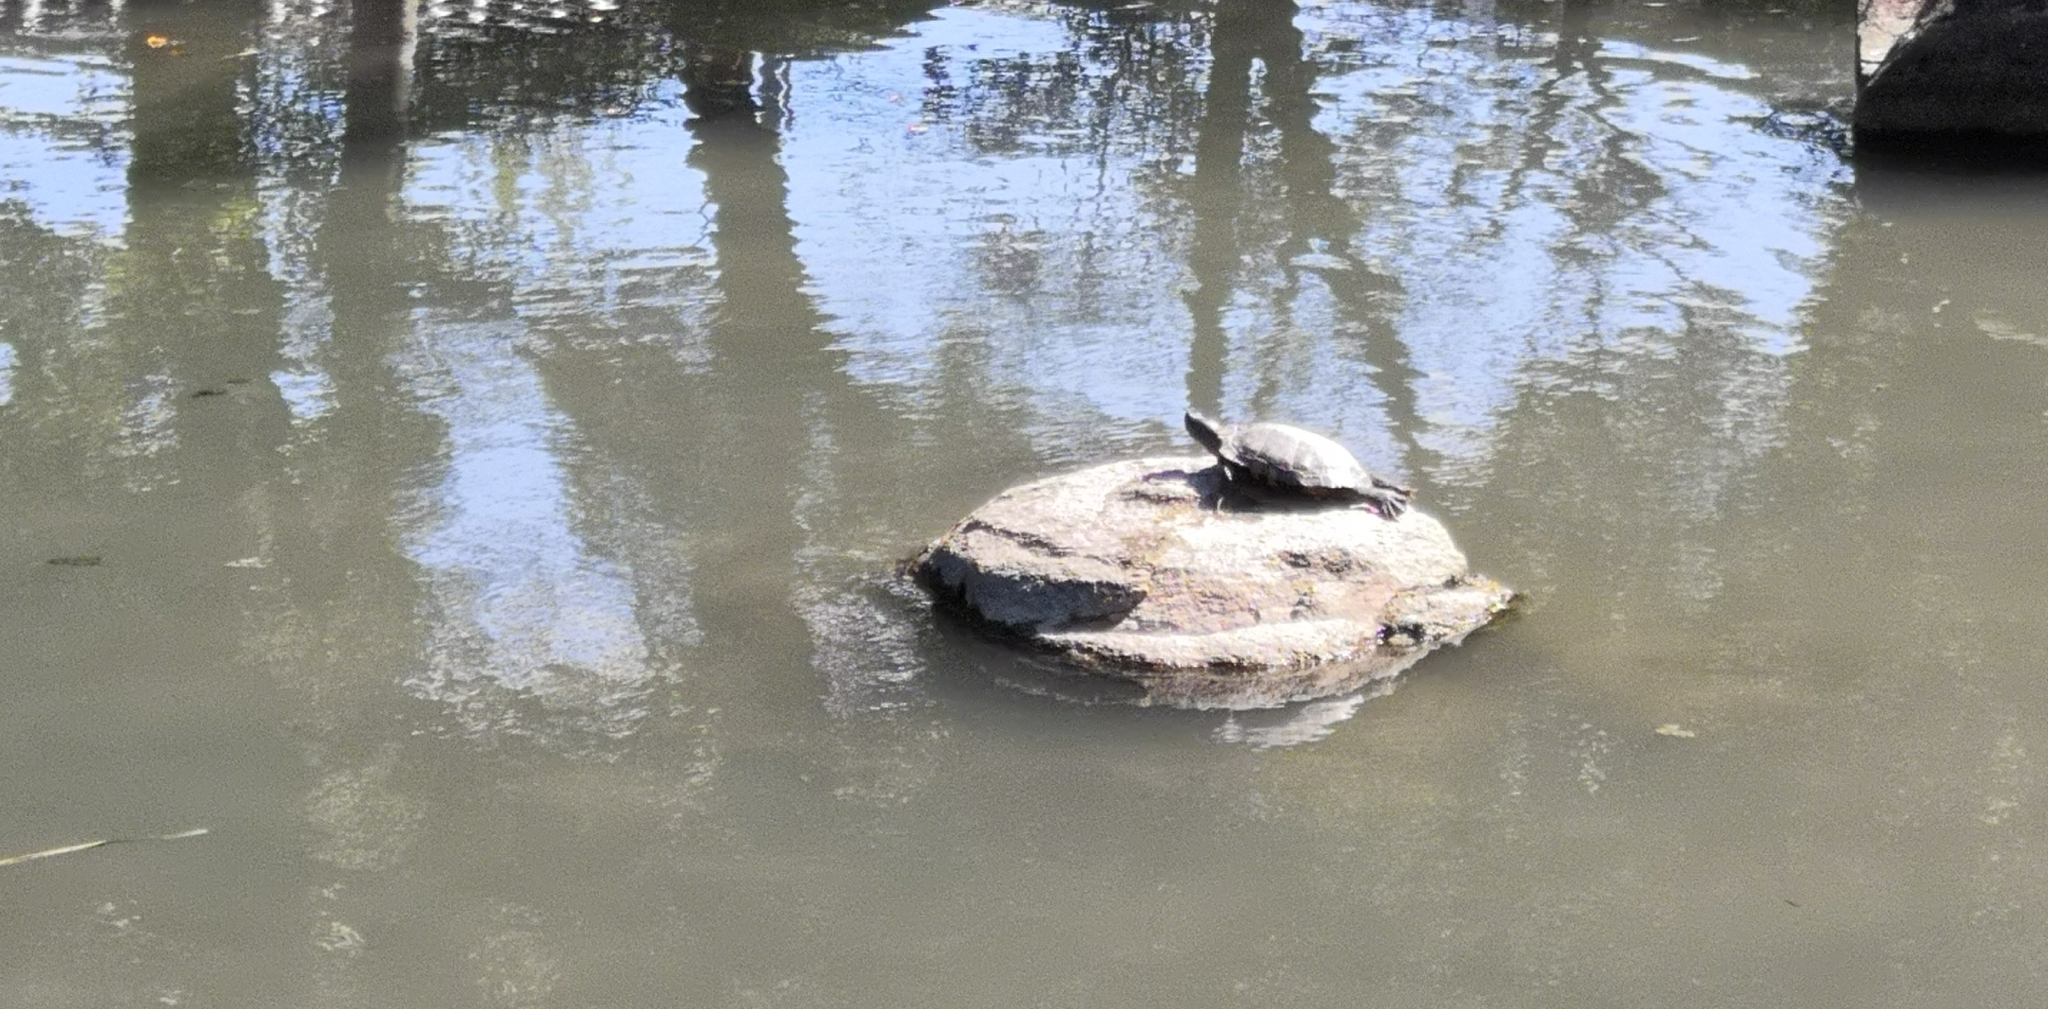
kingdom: Animalia
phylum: Chordata
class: Testudines
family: Emydidae
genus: Trachemys
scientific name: Trachemys scripta
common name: Slider
